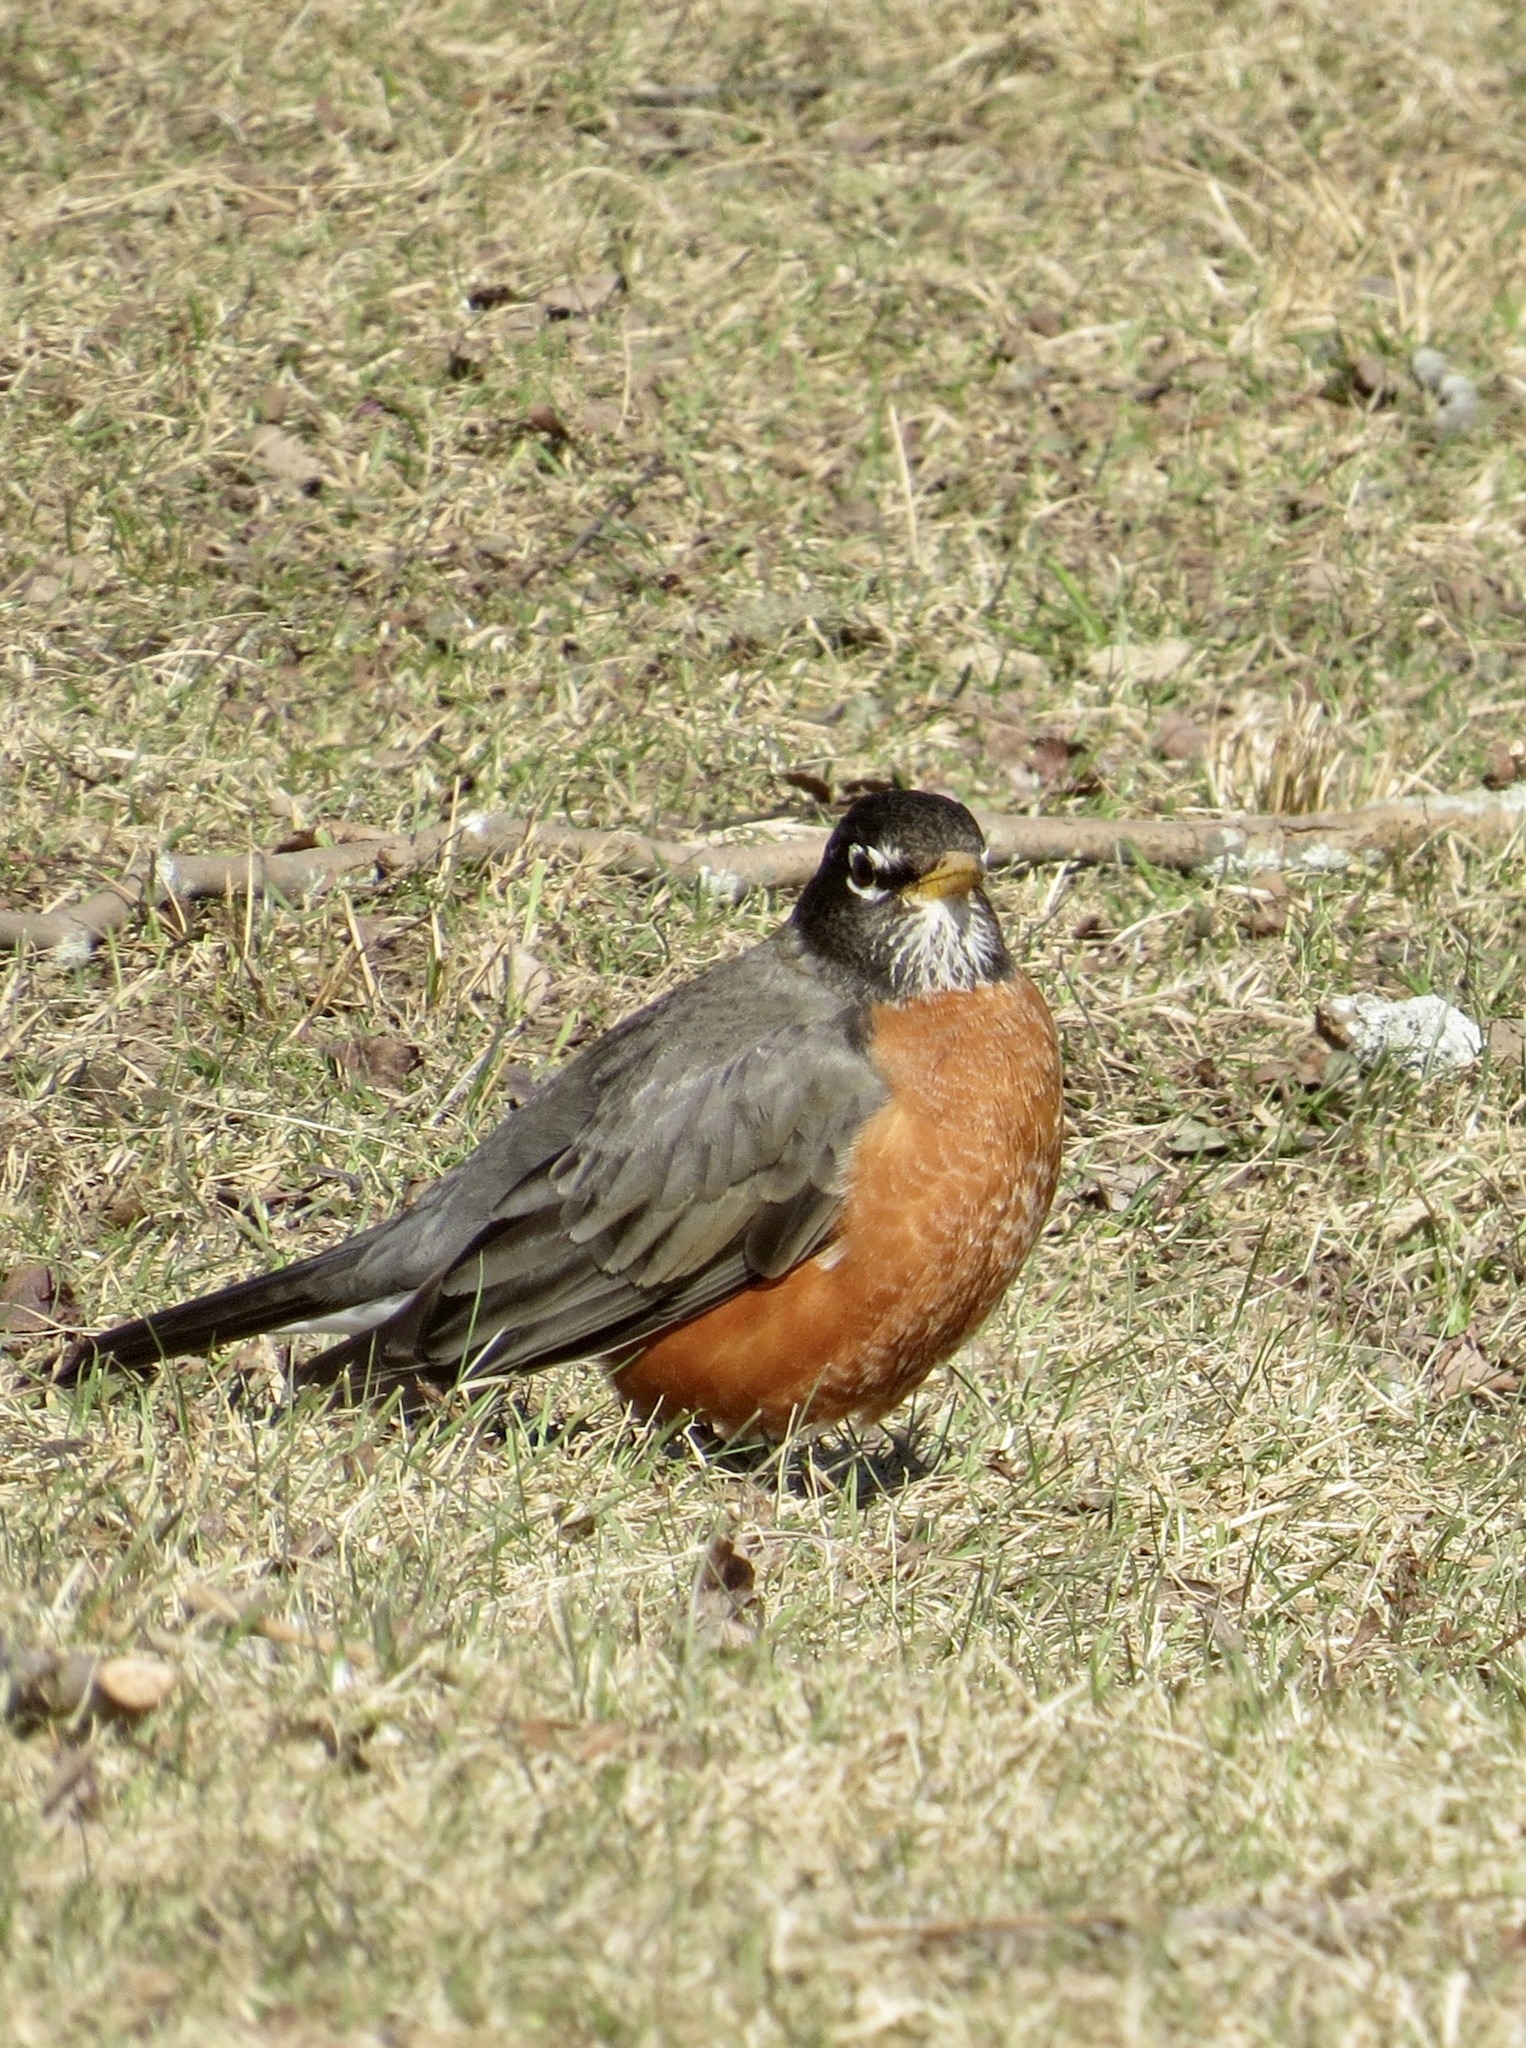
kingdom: Animalia
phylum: Chordata
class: Aves
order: Passeriformes
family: Turdidae
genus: Turdus
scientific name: Turdus migratorius
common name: American robin
